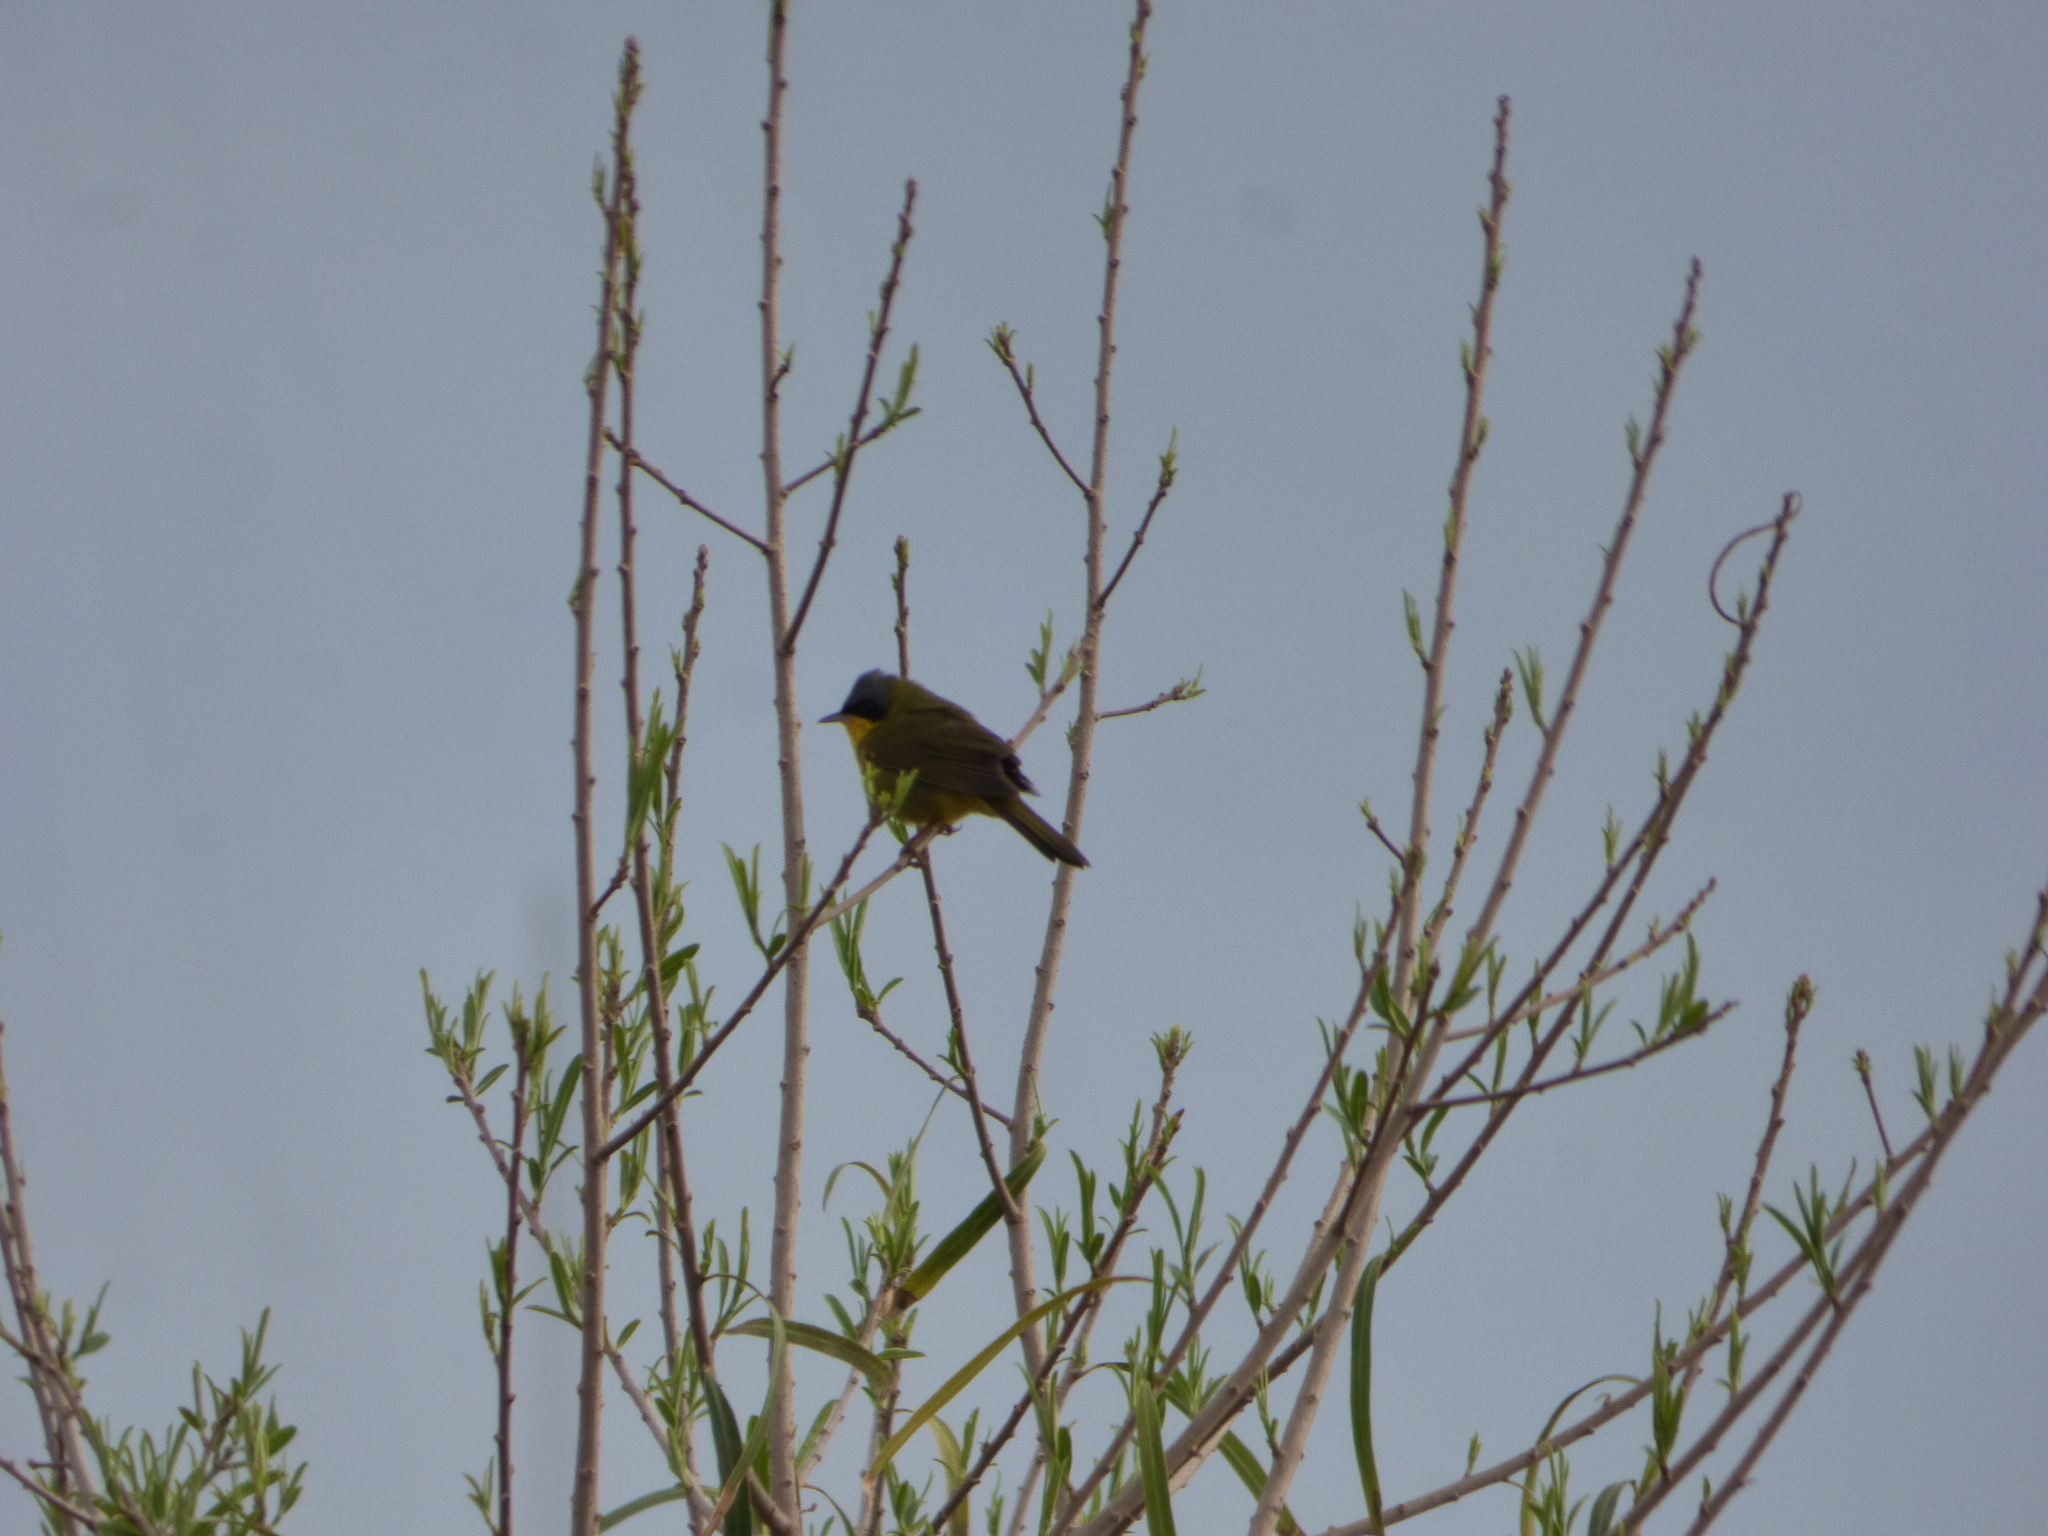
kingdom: Animalia
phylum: Chordata
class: Aves
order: Passeriformes
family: Parulidae
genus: Geothlypis
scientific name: Geothlypis velata
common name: Southern yellowthroat
